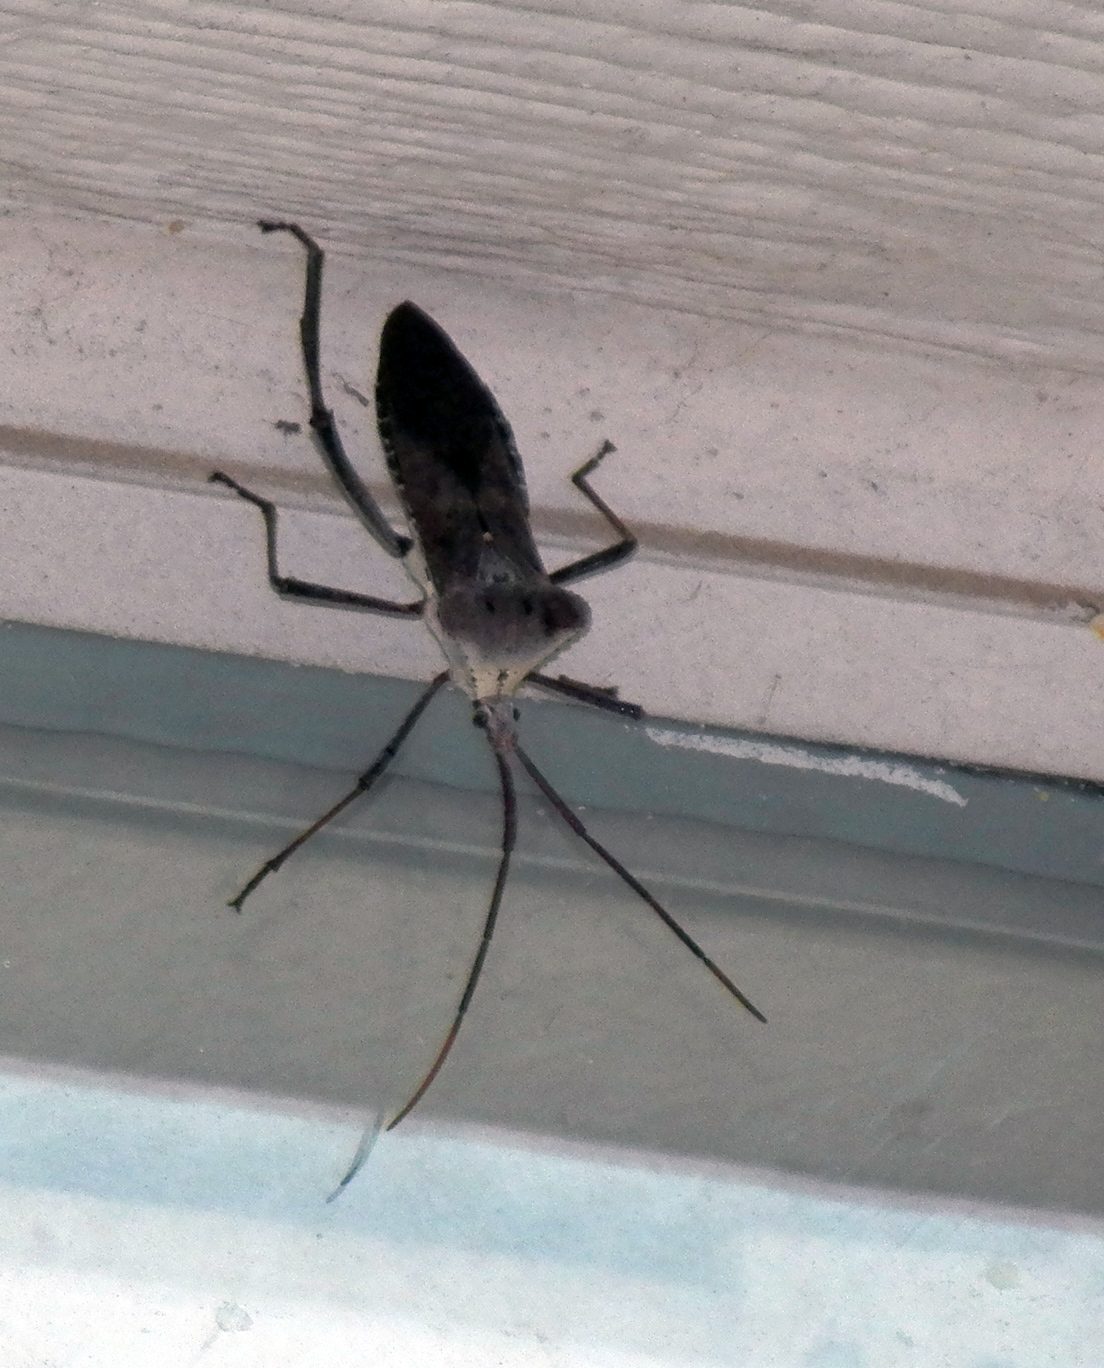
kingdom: Animalia
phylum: Arthropoda
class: Insecta
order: Hemiptera
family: Coreidae
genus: Acanthocephala
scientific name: Acanthocephala declivis
